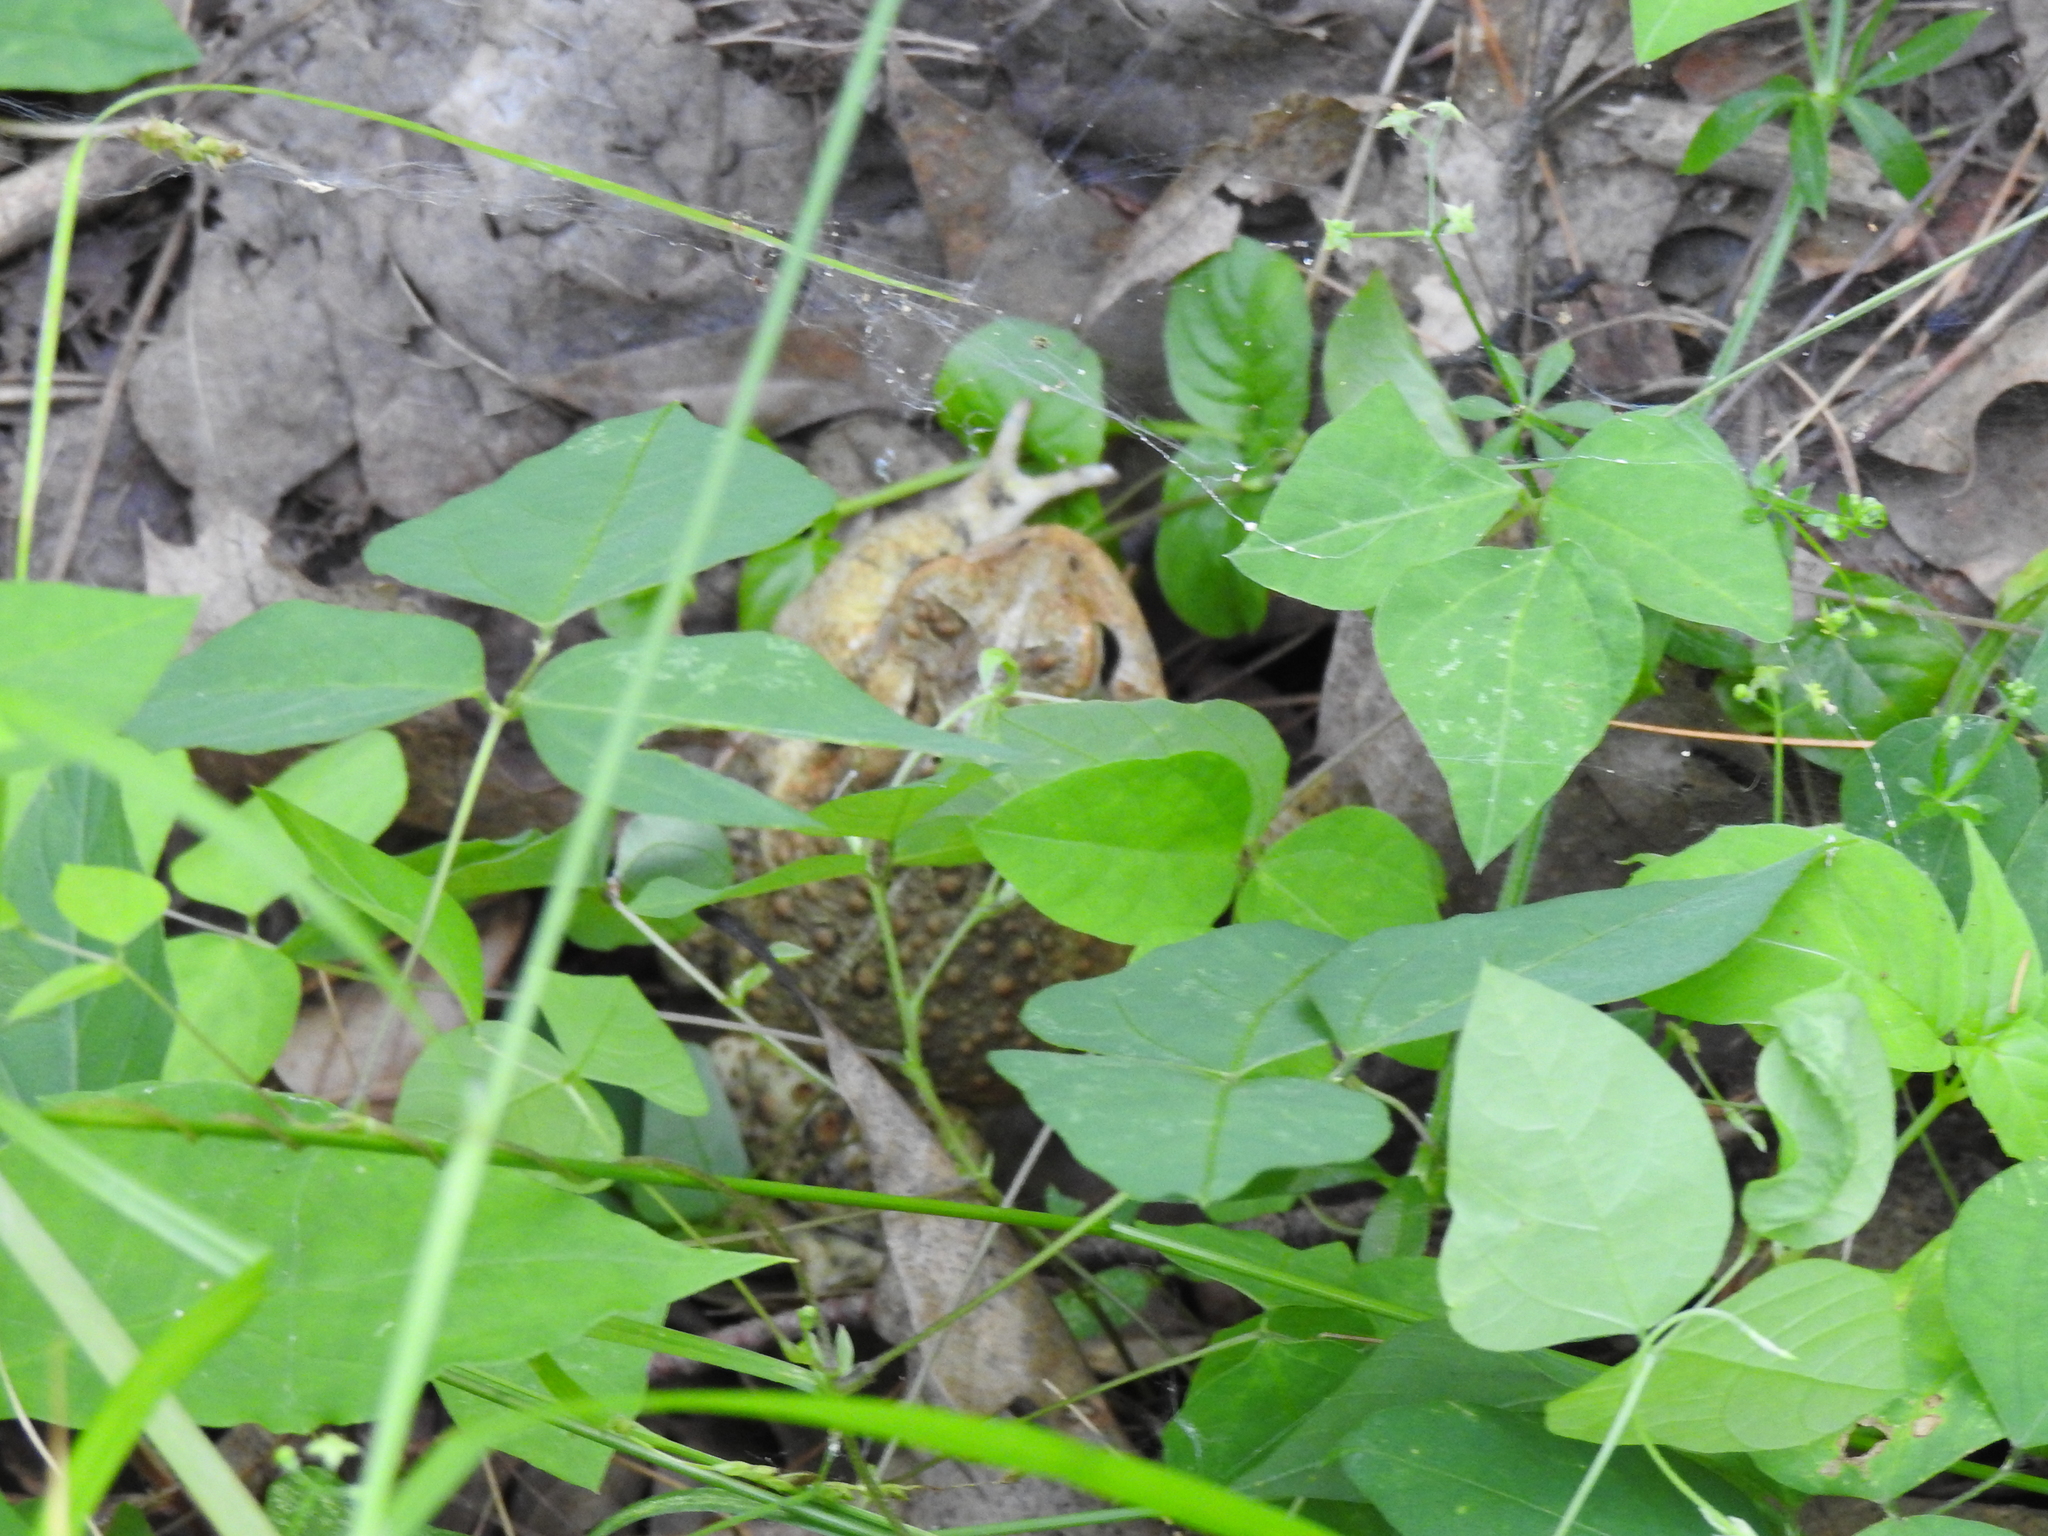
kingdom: Animalia
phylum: Chordata
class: Amphibia
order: Anura
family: Bufonidae
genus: Anaxyrus
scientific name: Anaxyrus americanus
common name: American toad
